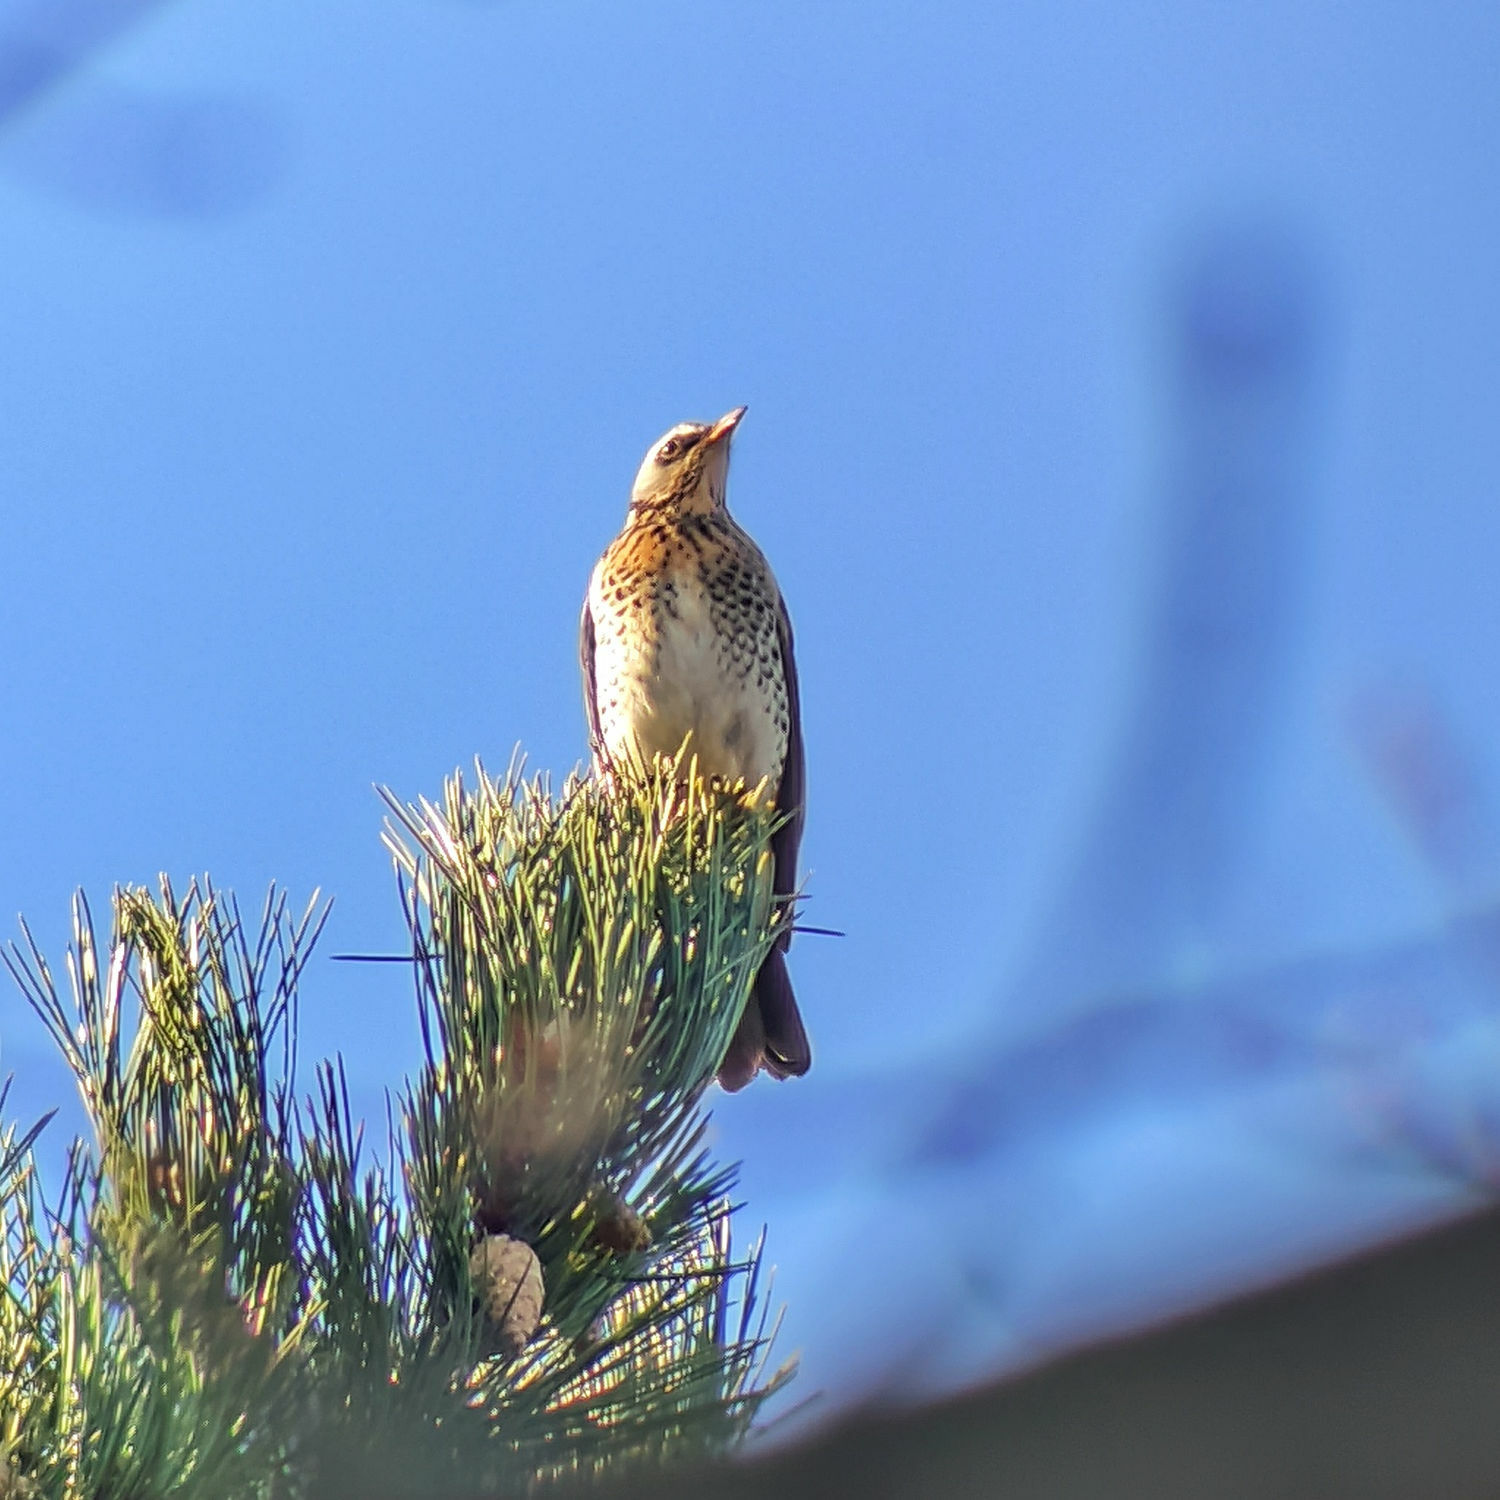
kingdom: Animalia
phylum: Chordata
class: Aves
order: Passeriformes
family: Turdidae
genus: Turdus
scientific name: Turdus pilaris
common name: Fieldfare
